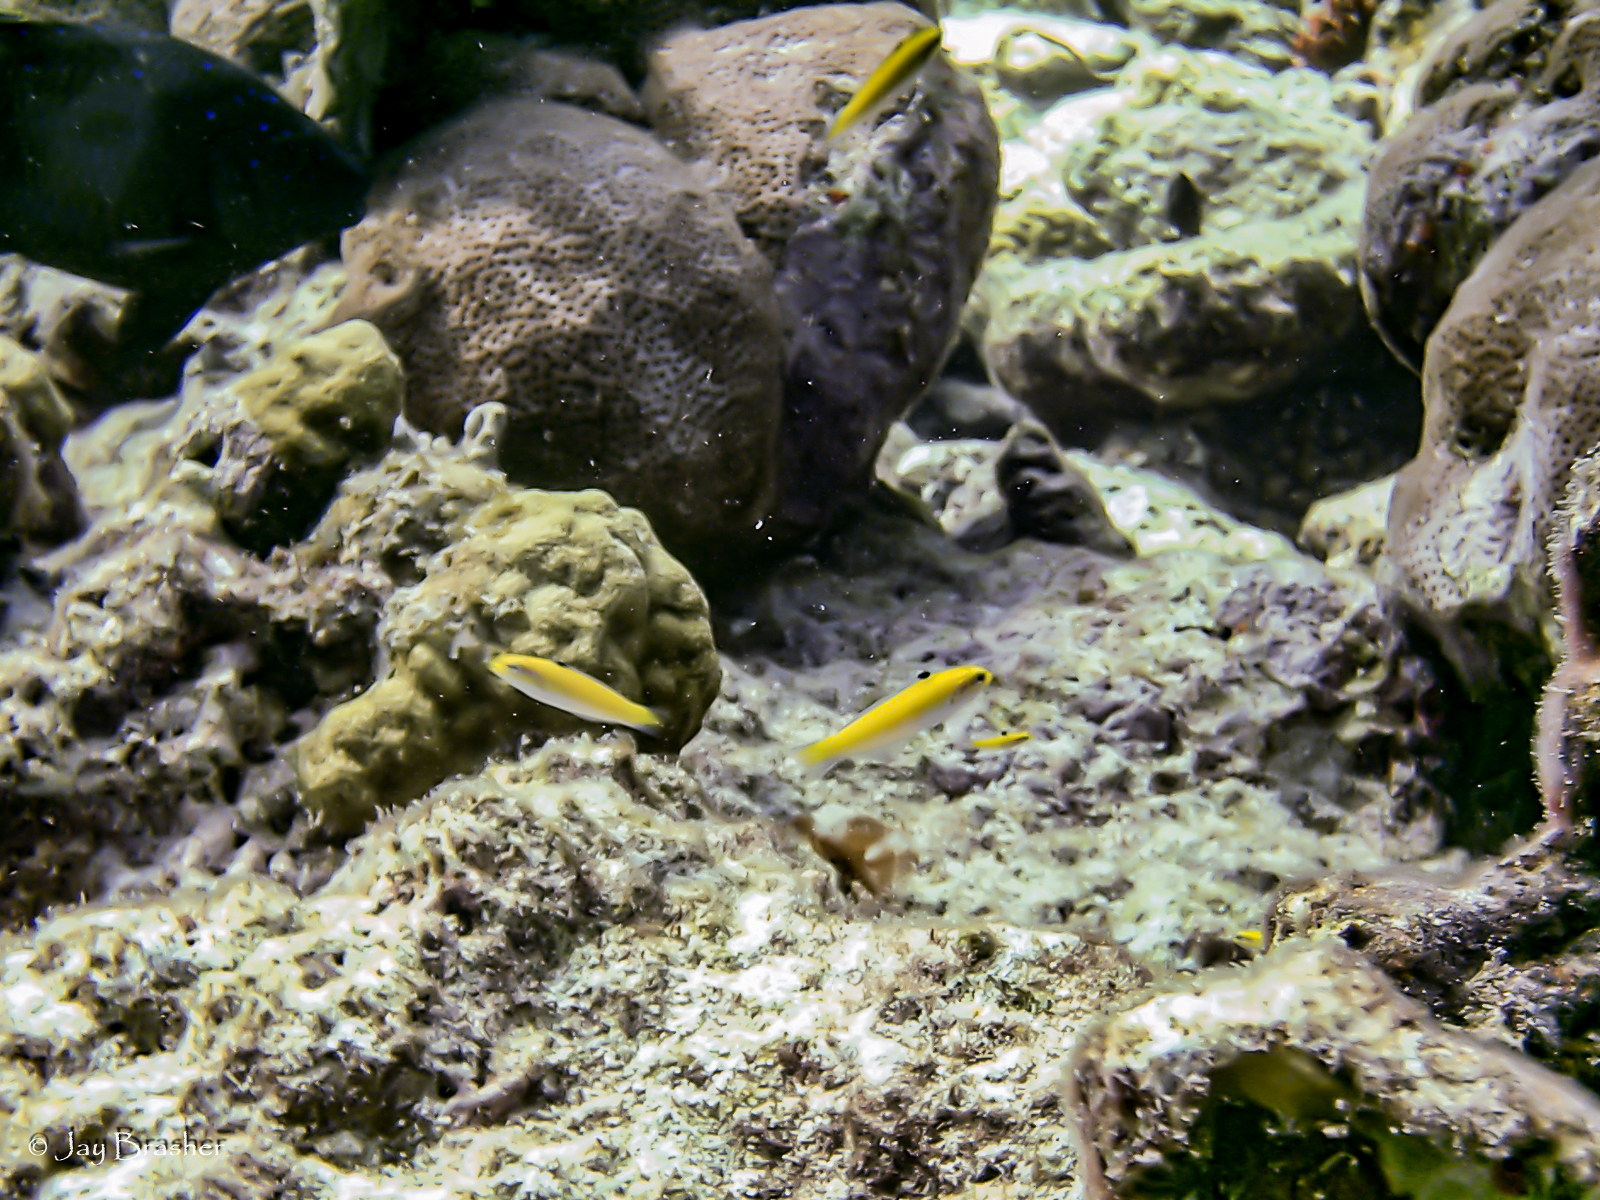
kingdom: Animalia
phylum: Chordata
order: Perciformes
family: Labridae
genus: Thalassoma
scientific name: Thalassoma bifasciatum
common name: Bluehead wrasse
